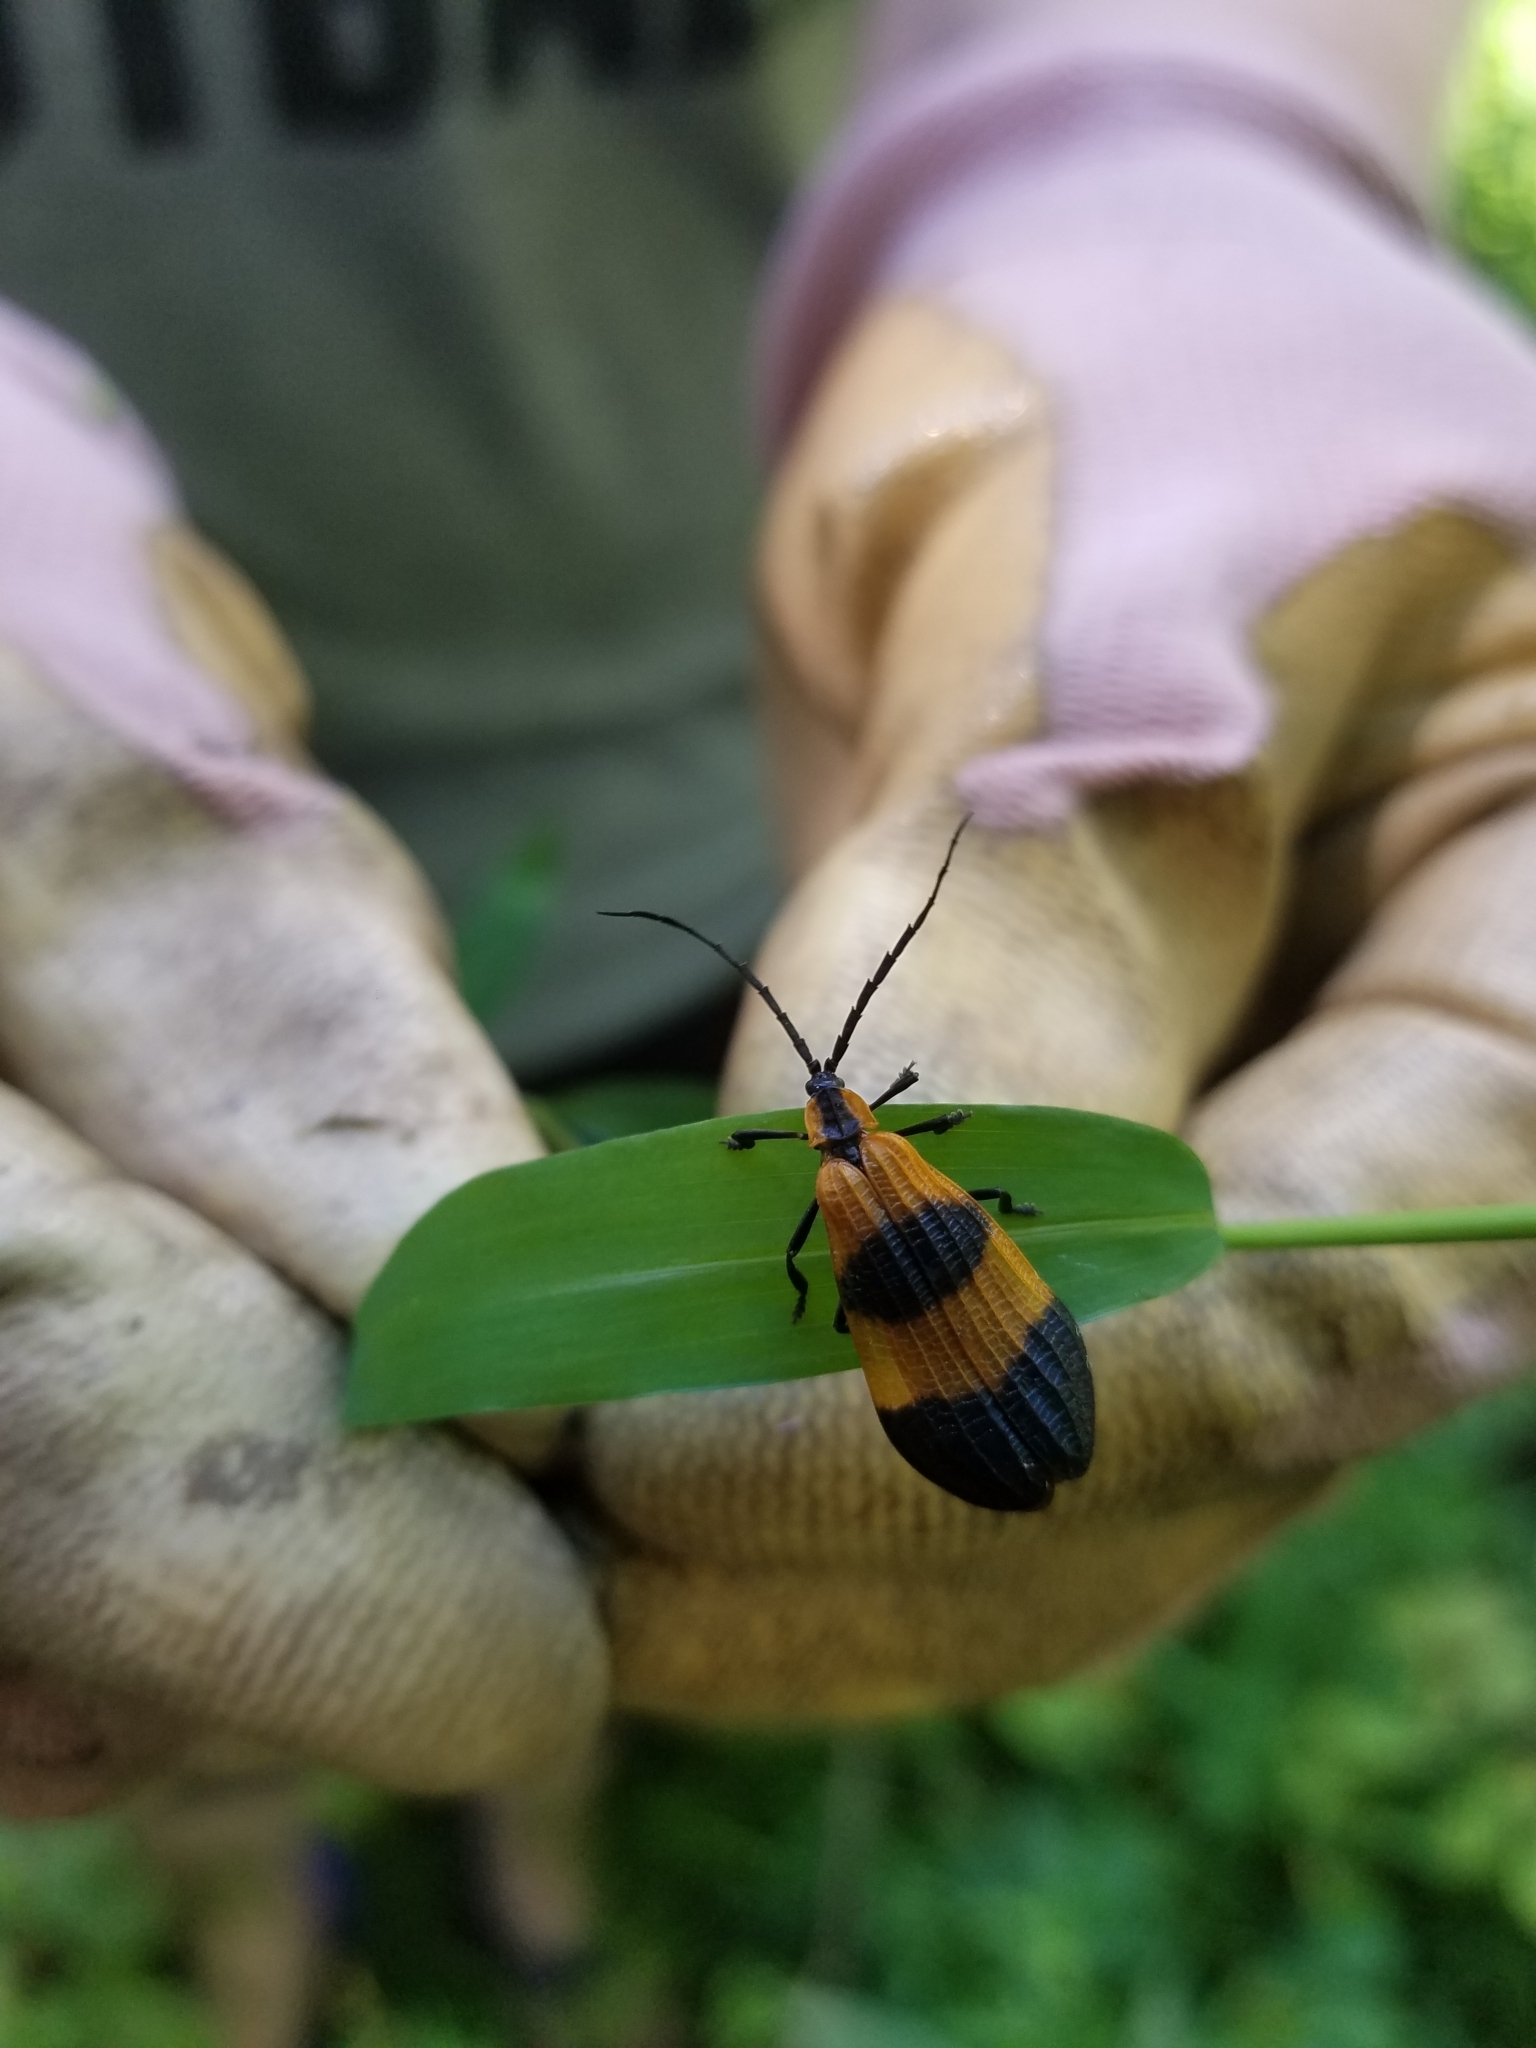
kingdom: Animalia
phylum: Arthropoda
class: Insecta
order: Coleoptera
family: Lycidae
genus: Calopteron
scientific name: Calopteron terminale
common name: End band net-winged beetle
